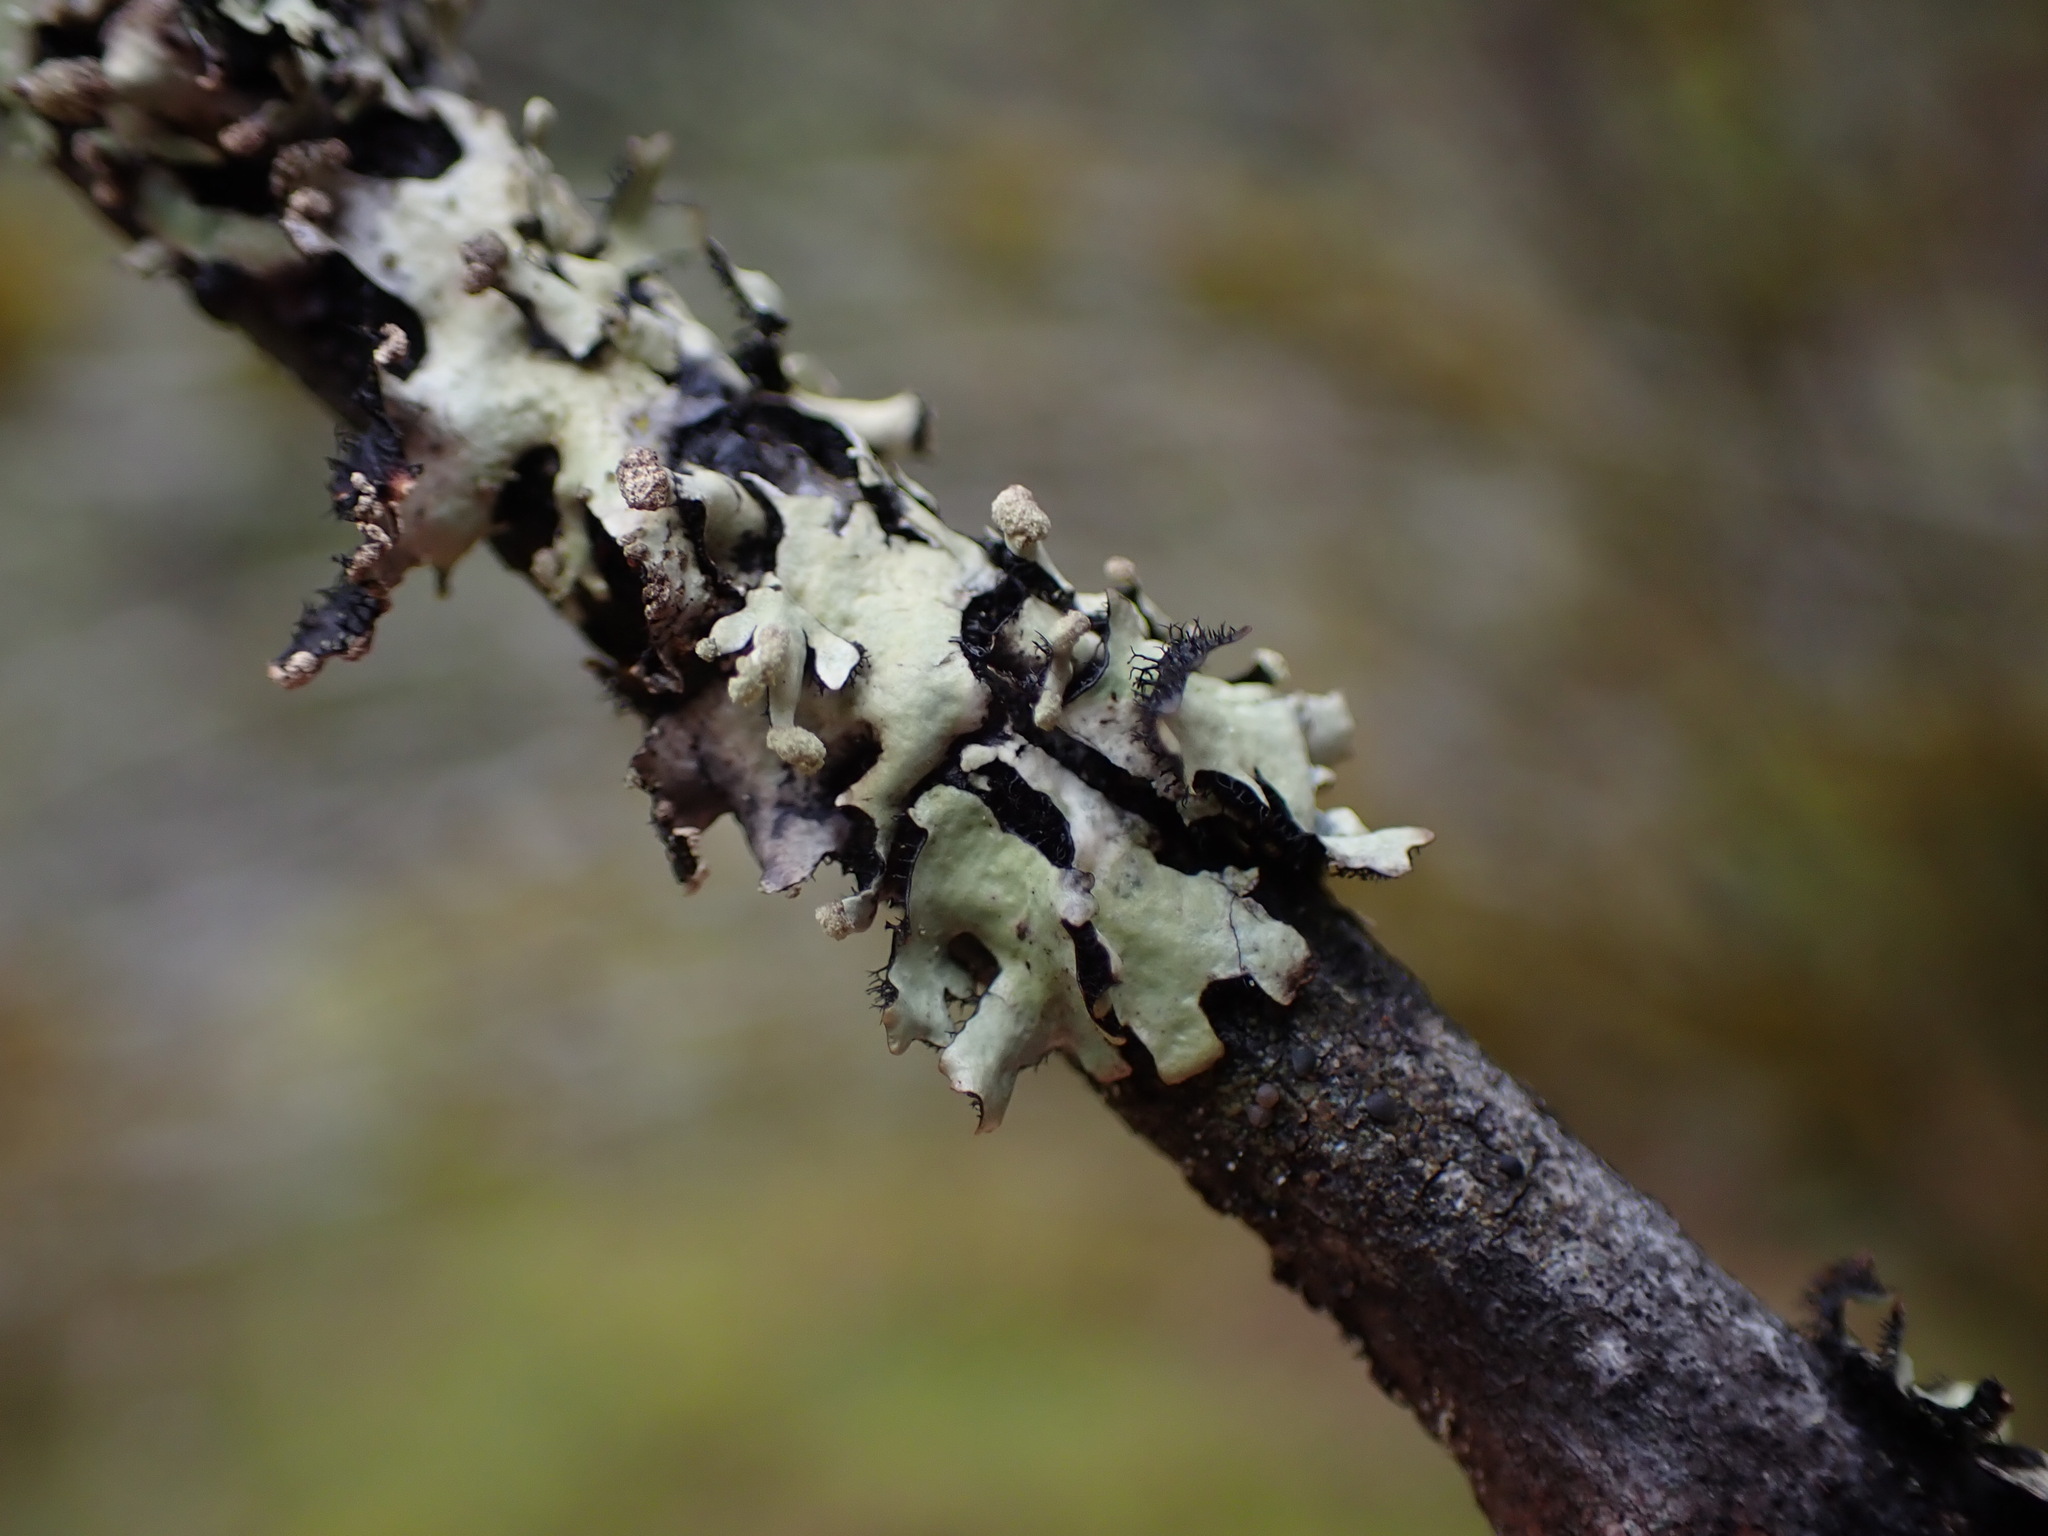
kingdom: Fungi
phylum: Ascomycota
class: Lecanoromycetes
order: Lecanorales
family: Parmeliaceae
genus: Hypotrachyna
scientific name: Hypotrachyna sinuosa
